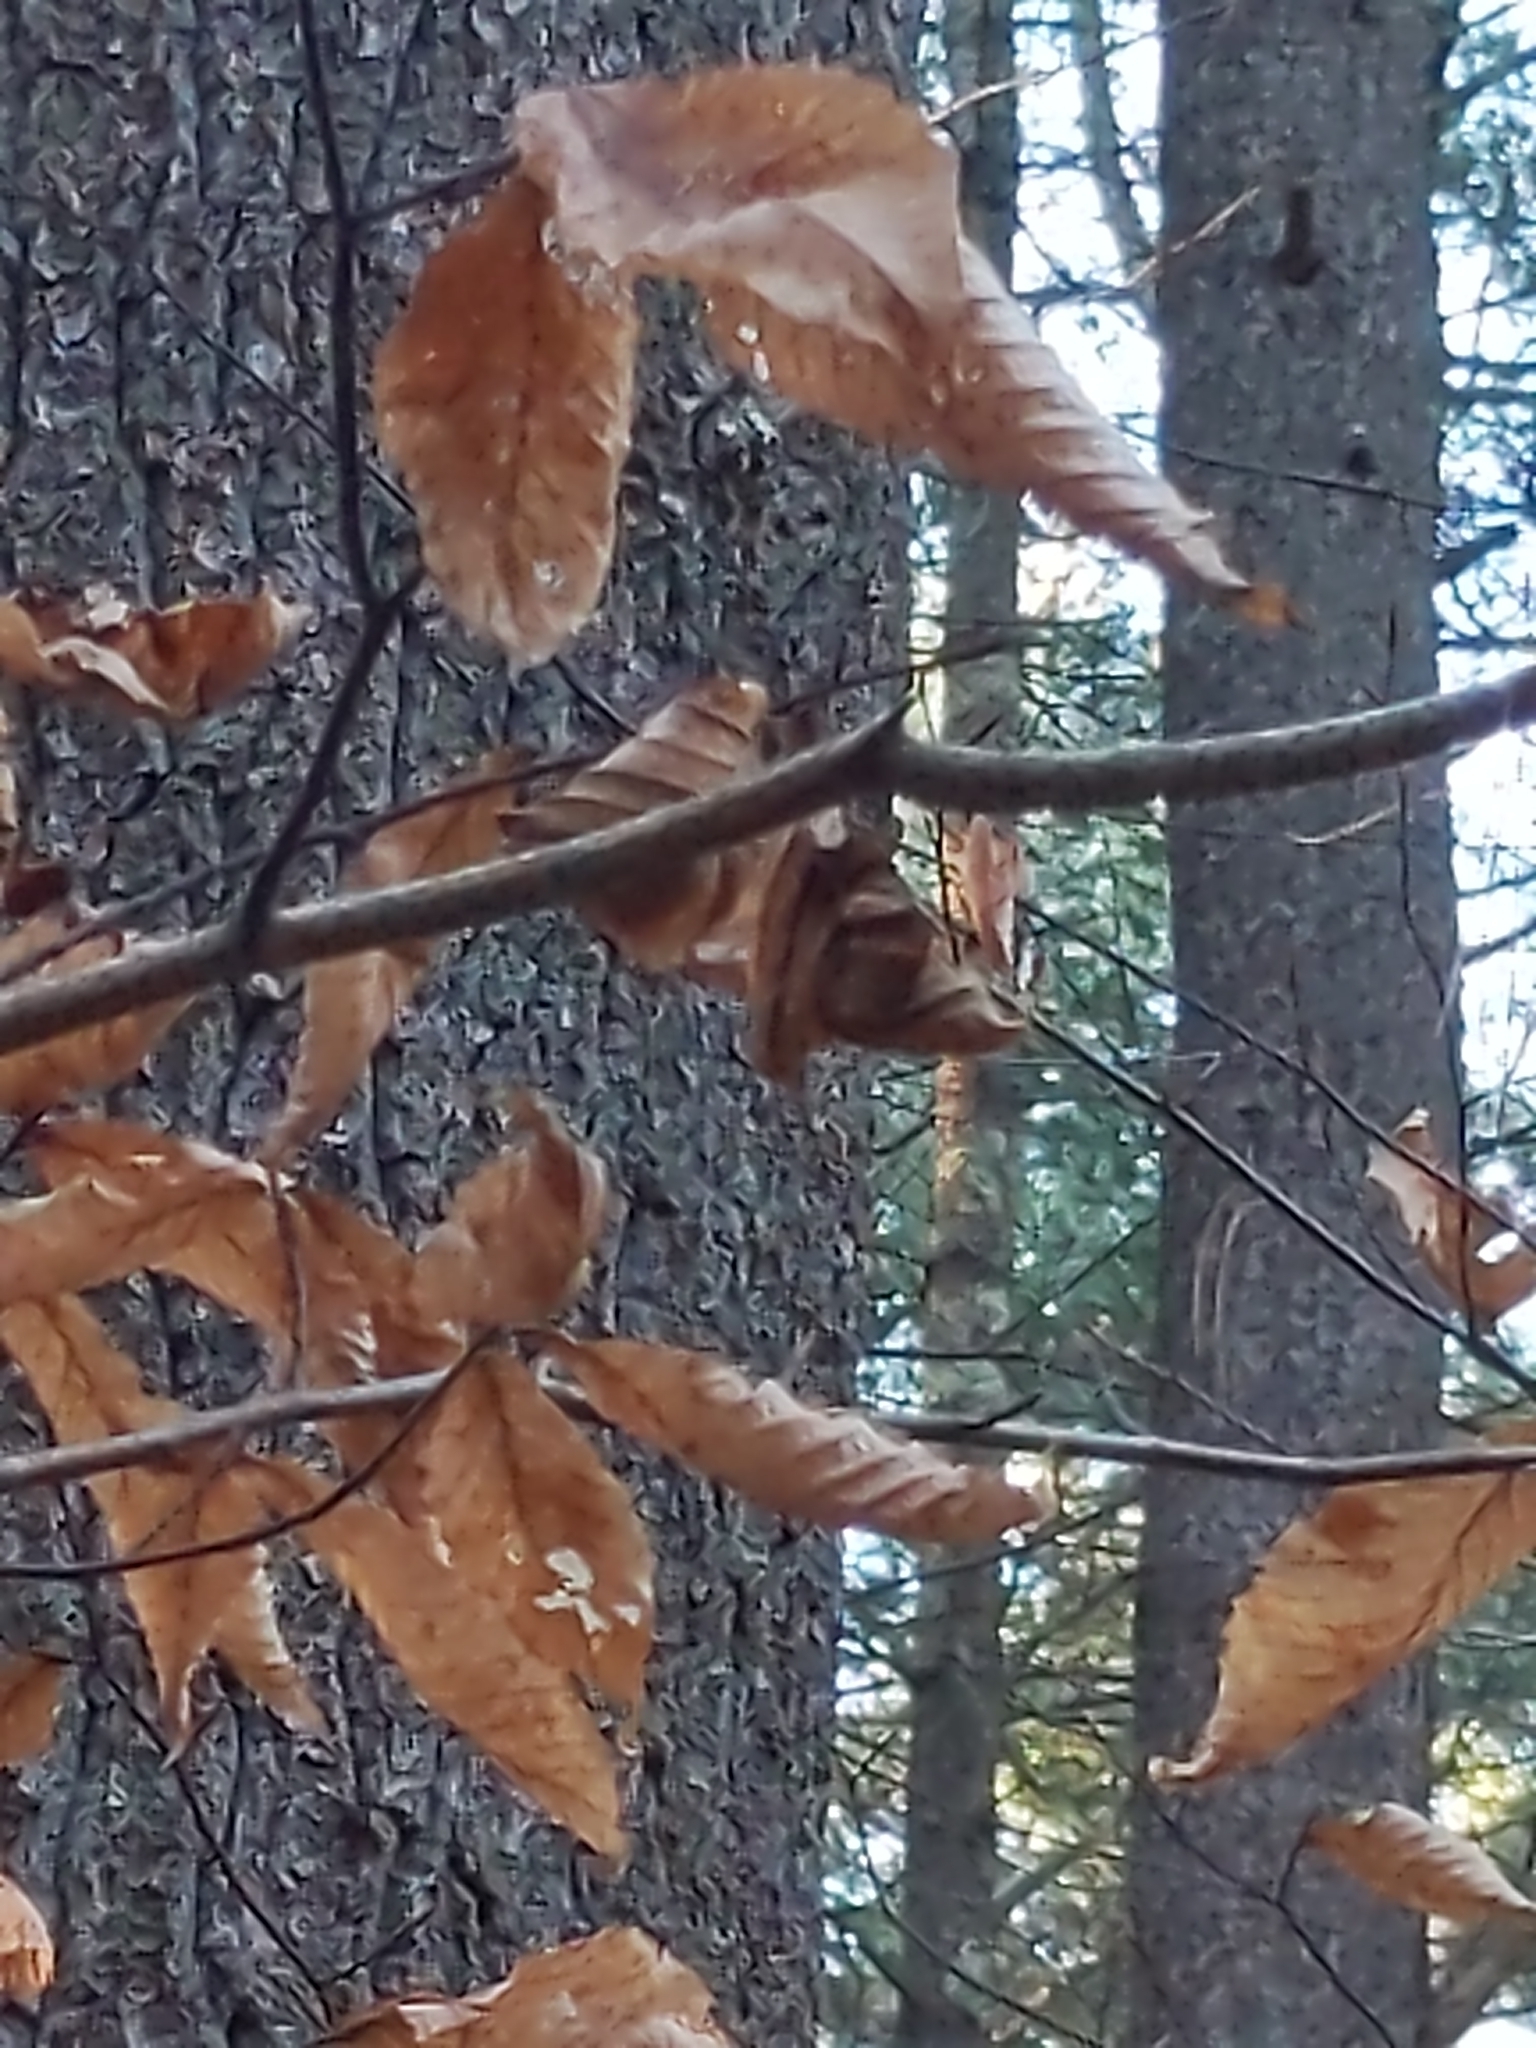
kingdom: Animalia
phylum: Nematoda
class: Chromadorea
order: Rhabditida
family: Anguinidae
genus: Litylenchus
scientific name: Litylenchus crenatae
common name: Beech leaf disease
